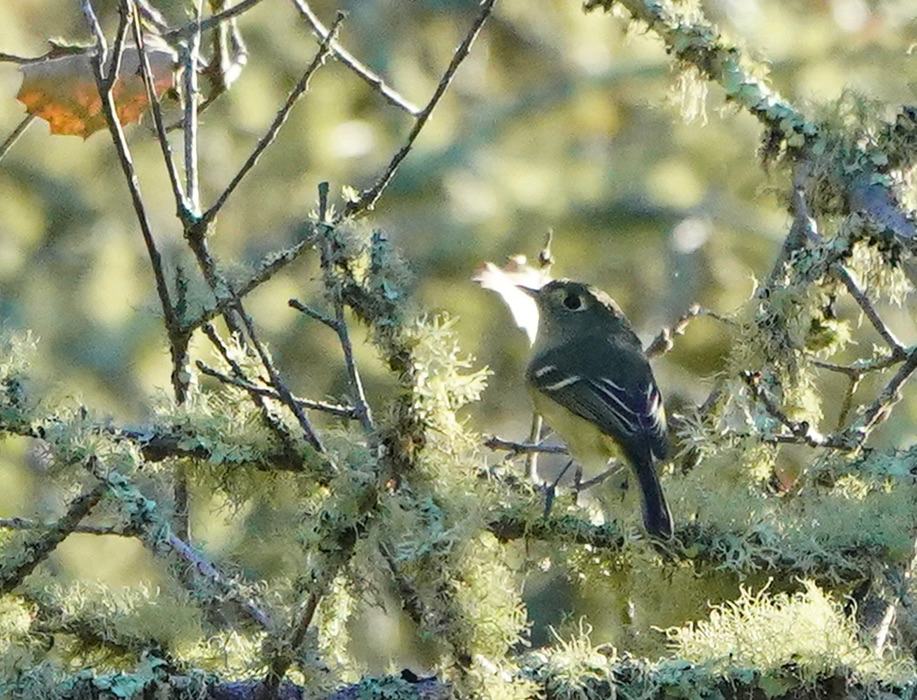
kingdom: Animalia
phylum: Chordata
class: Aves
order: Passeriformes
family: Vireonidae
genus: Vireo
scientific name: Vireo huttoni
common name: Hutton's vireo
